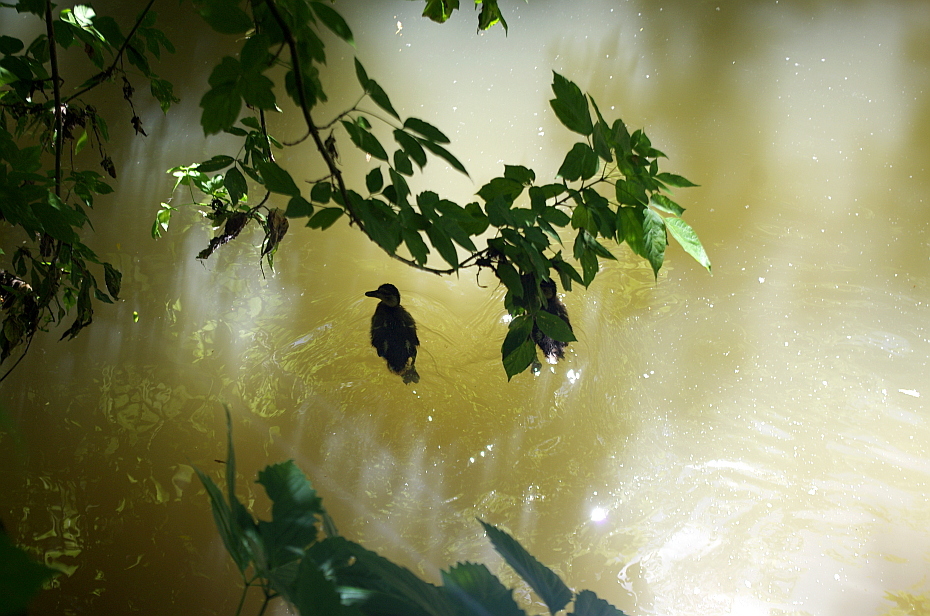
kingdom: Plantae
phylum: Tracheophyta
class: Magnoliopsida
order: Sapindales
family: Sapindaceae
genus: Acer
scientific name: Acer negundo
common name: Ashleaf maple
